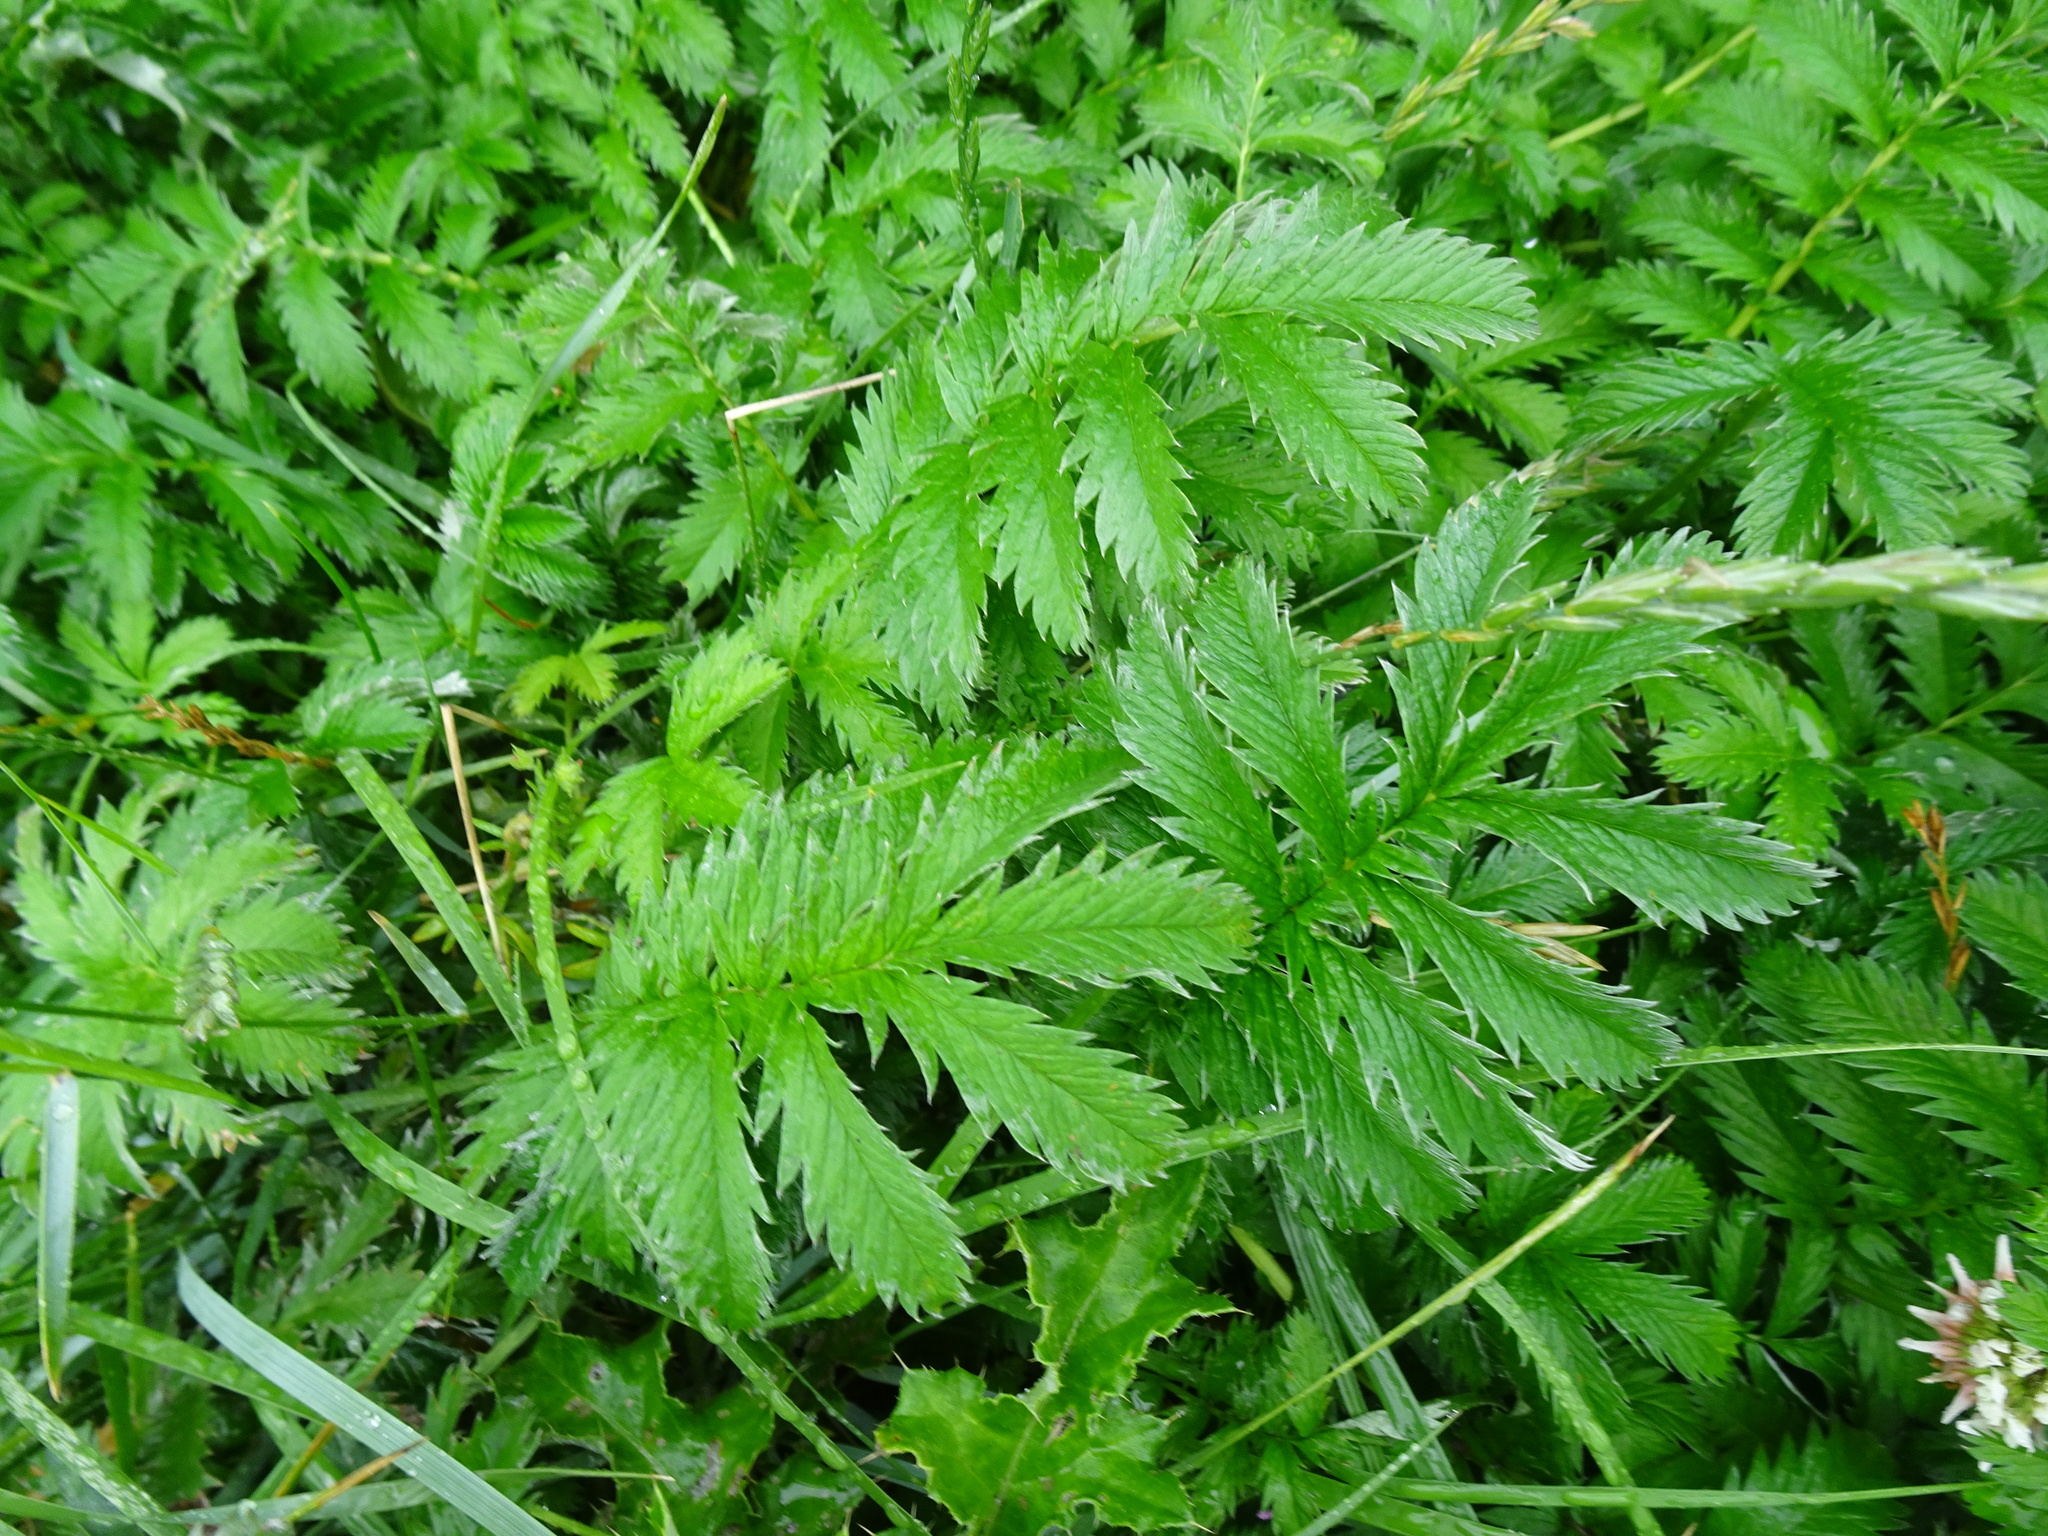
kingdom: Plantae
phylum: Tracheophyta
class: Magnoliopsida
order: Rosales
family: Rosaceae
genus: Argentina
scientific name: Argentina anserina
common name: Common silverweed
